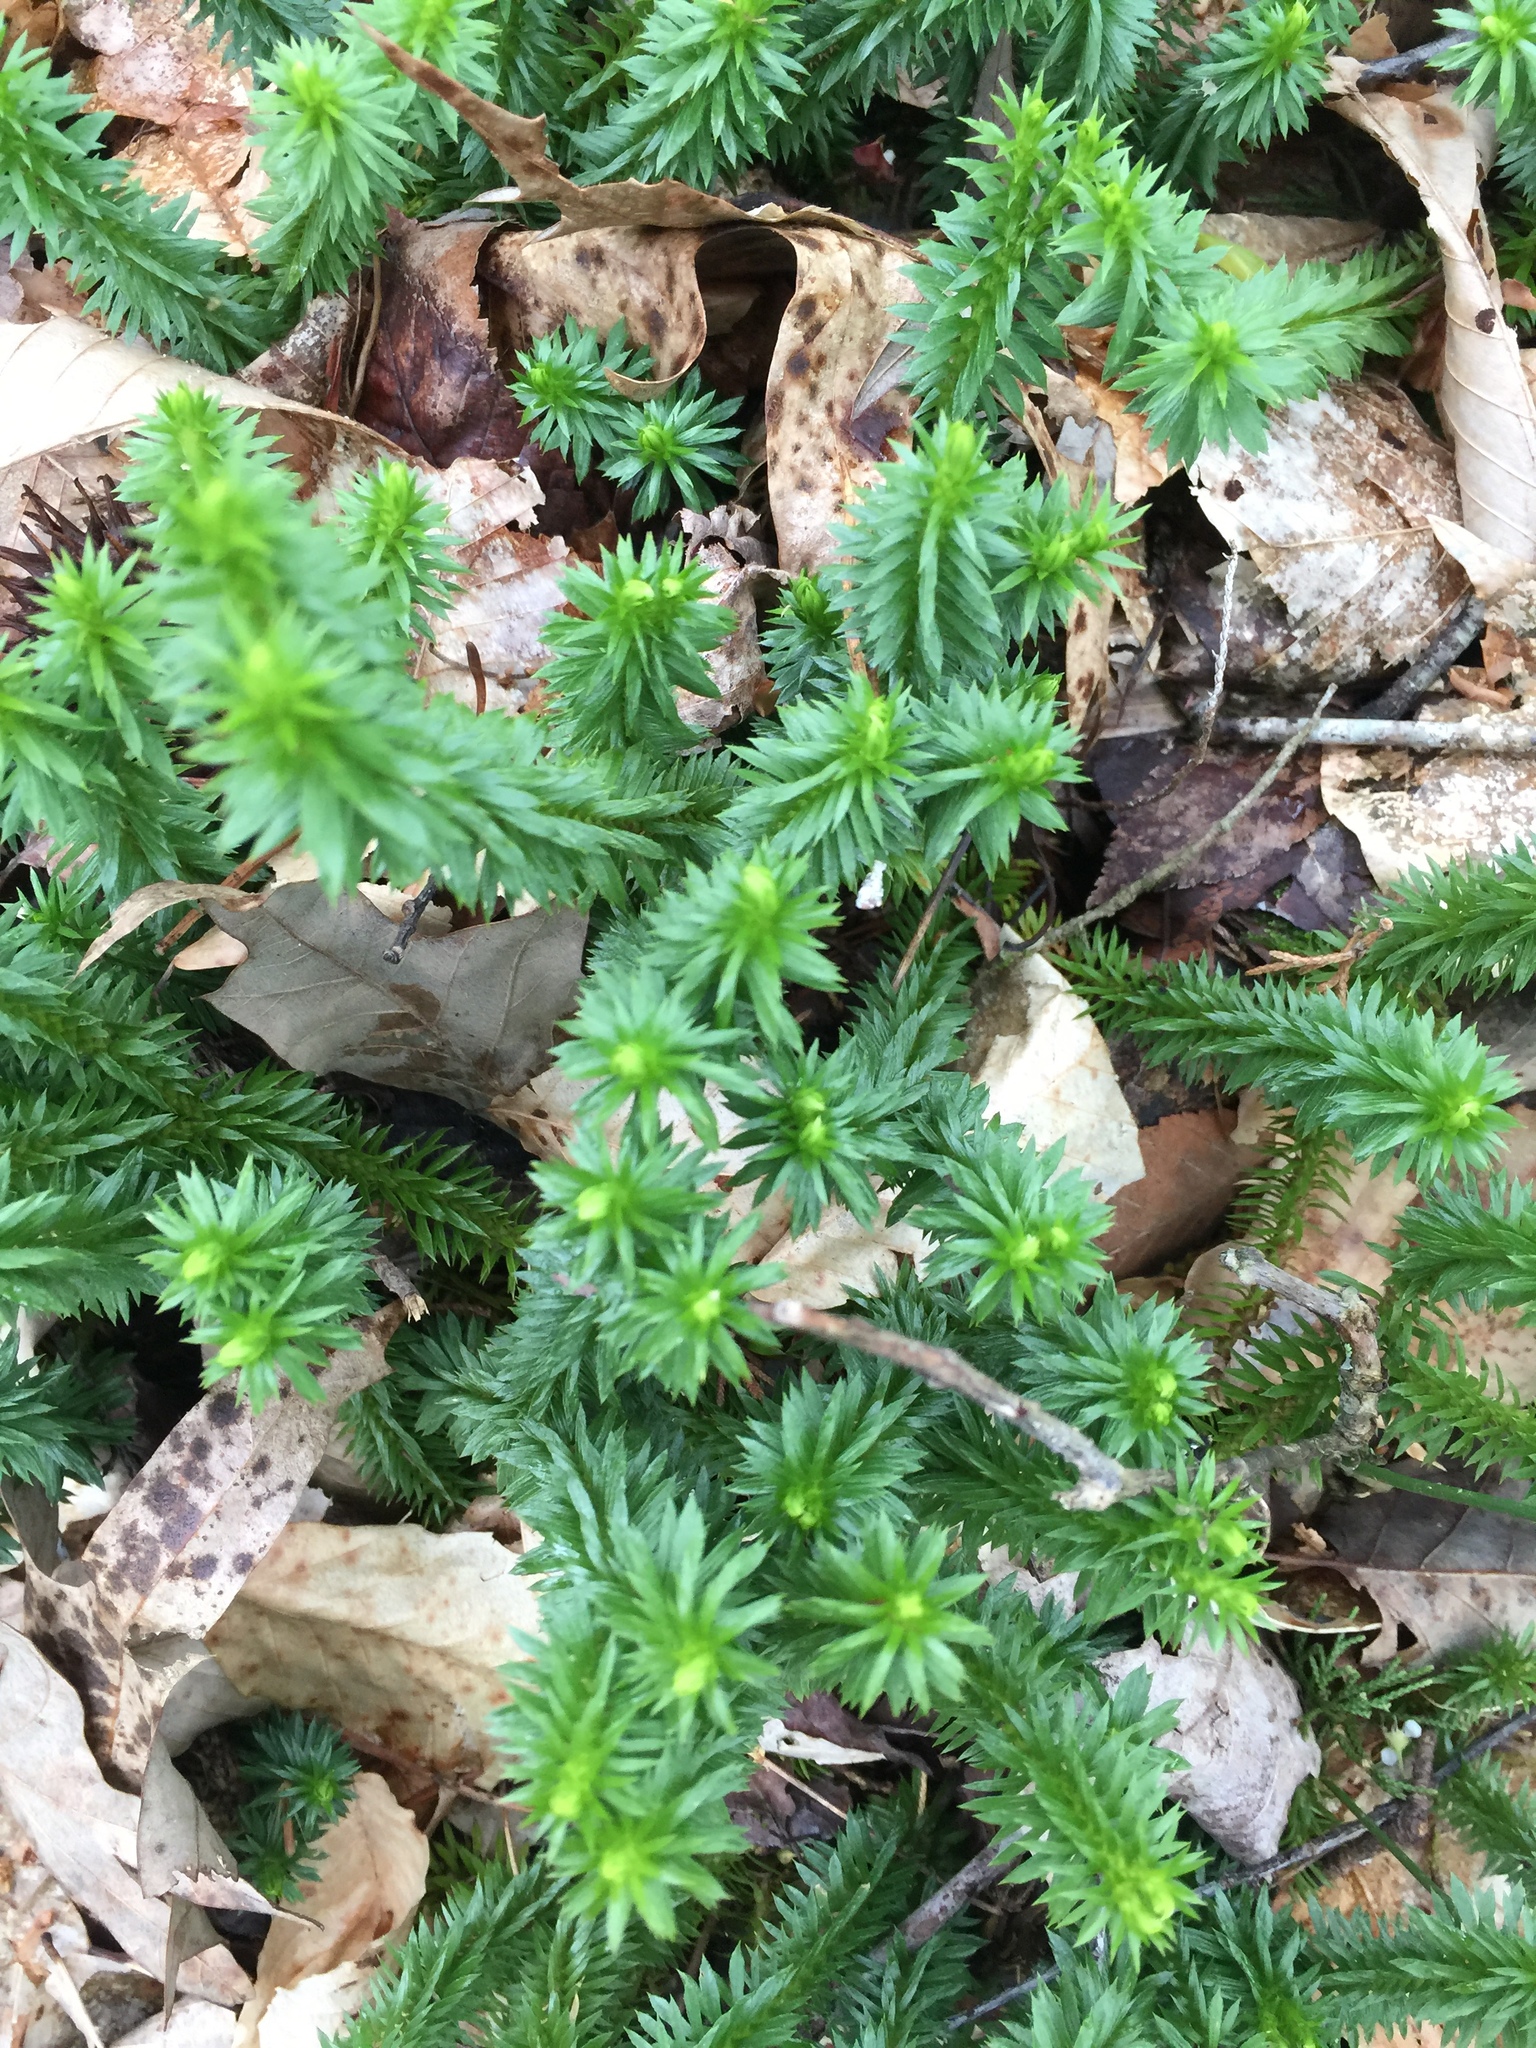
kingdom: Plantae
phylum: Tracheophyta
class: Lycopodiopsida
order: Lycopodiales
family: Lycopodiaceae
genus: Huperzia
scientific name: Huperzia lucidula
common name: Shining clubmoss
